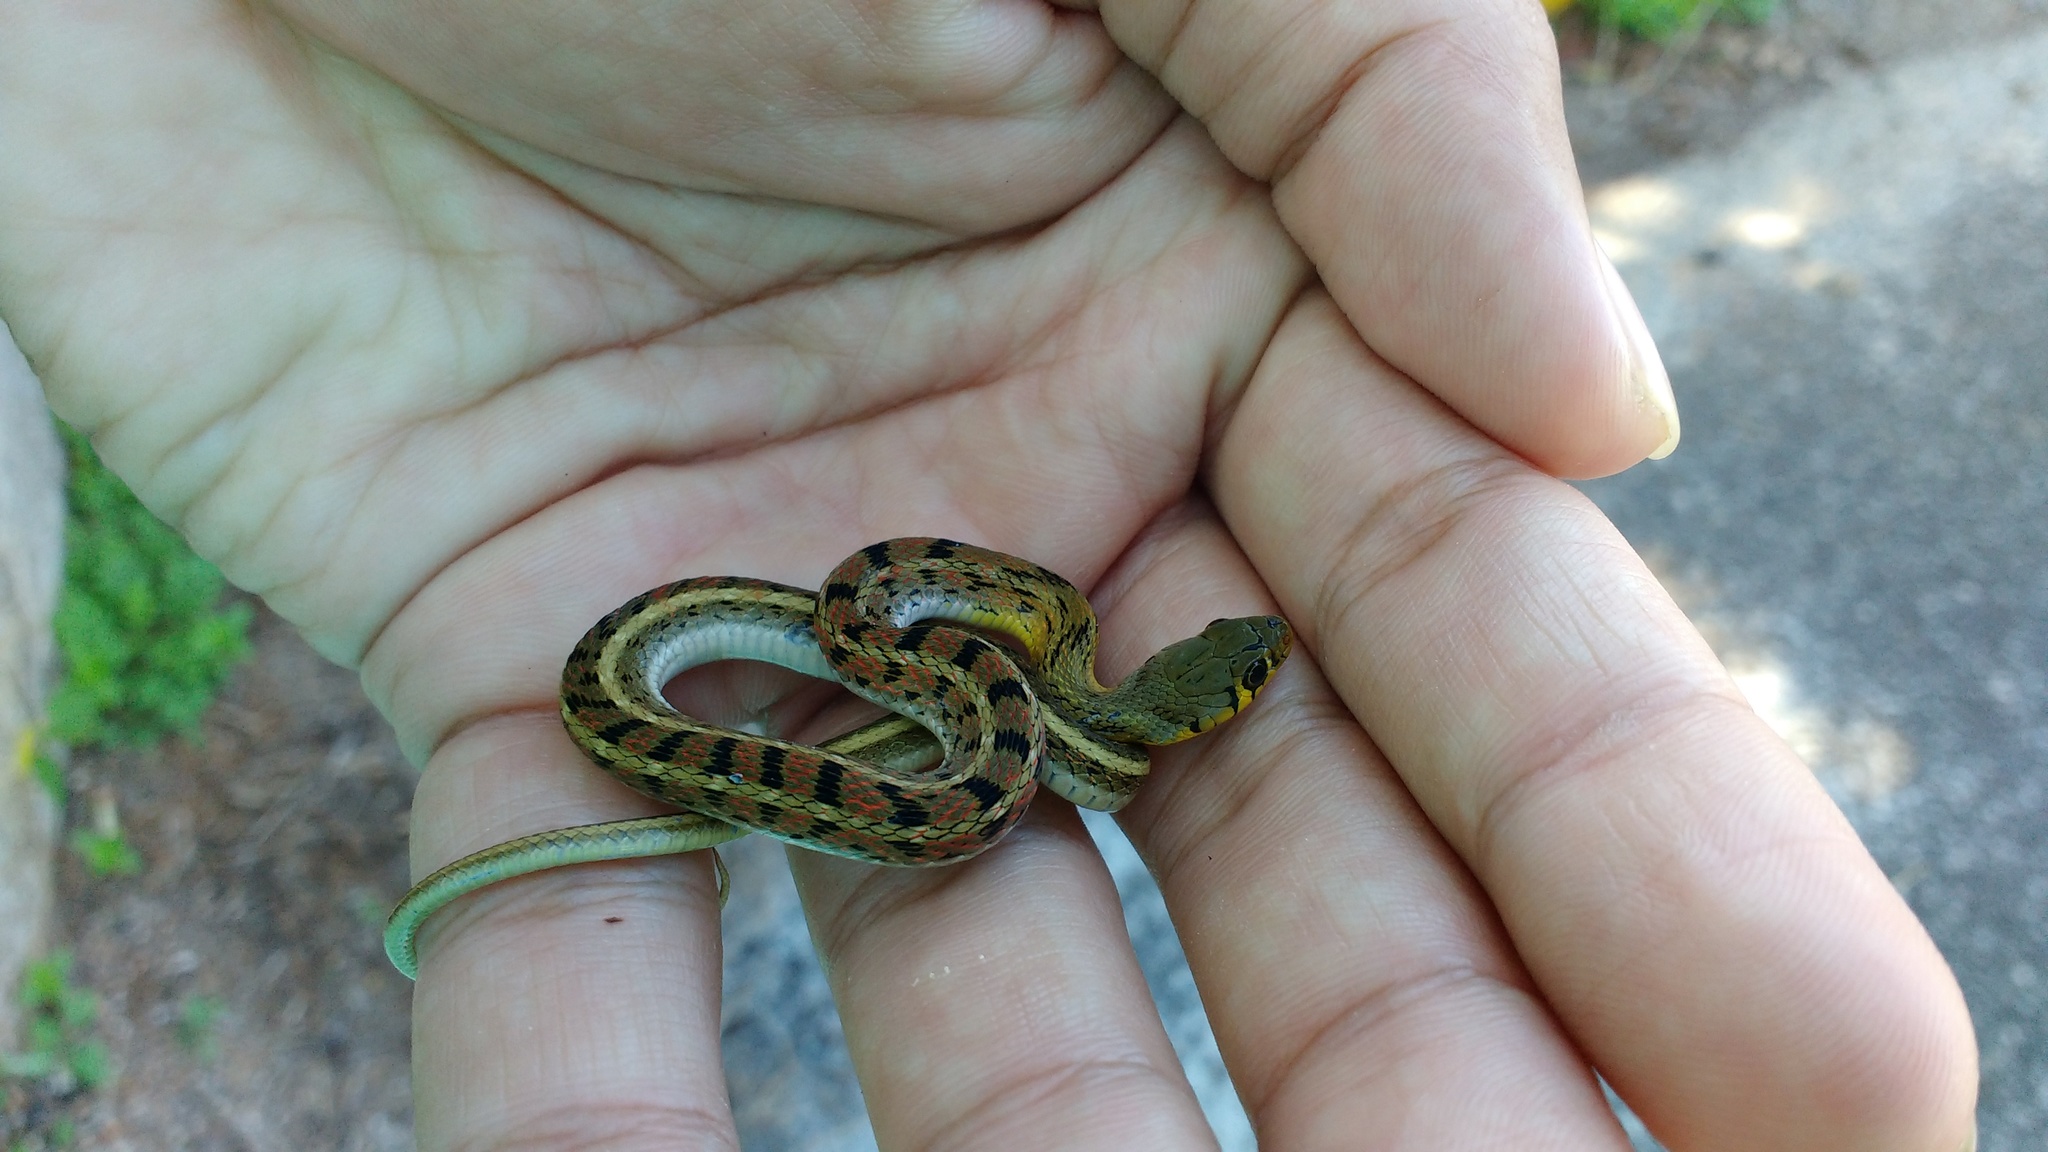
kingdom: Animalia
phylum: Chordata
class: Squamata
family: Colubridae
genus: Amphiesma
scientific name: Amphiesma stolatum
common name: Buff striped keelback
